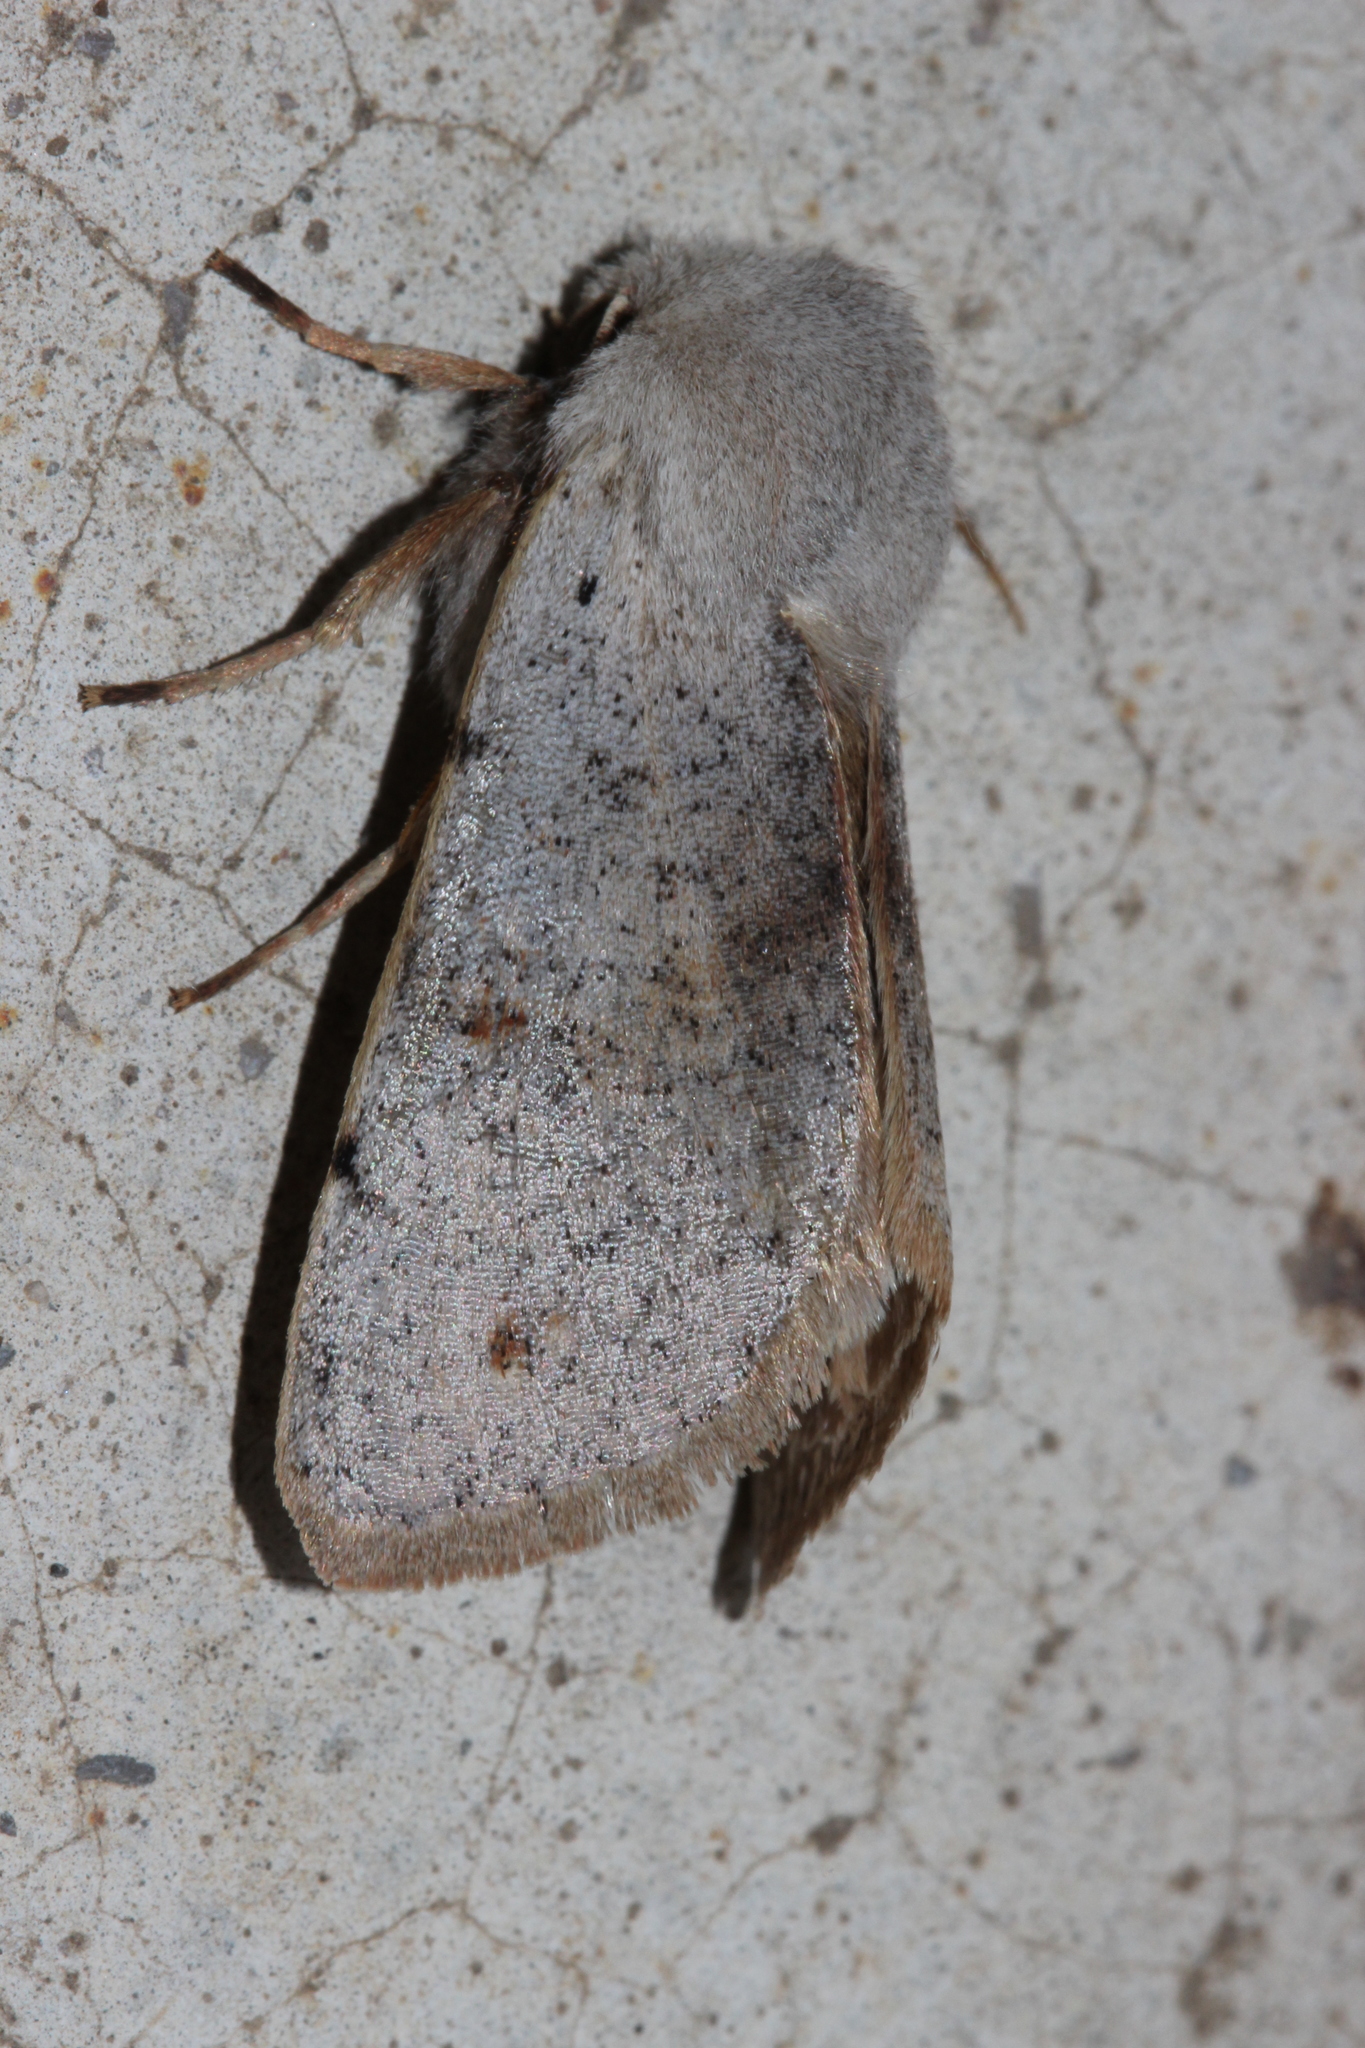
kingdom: Animalia
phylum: Arthropoda
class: Insecta
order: Lepidoptera
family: Noctuidae
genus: Perigrapha
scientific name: Perigrapha rorida
